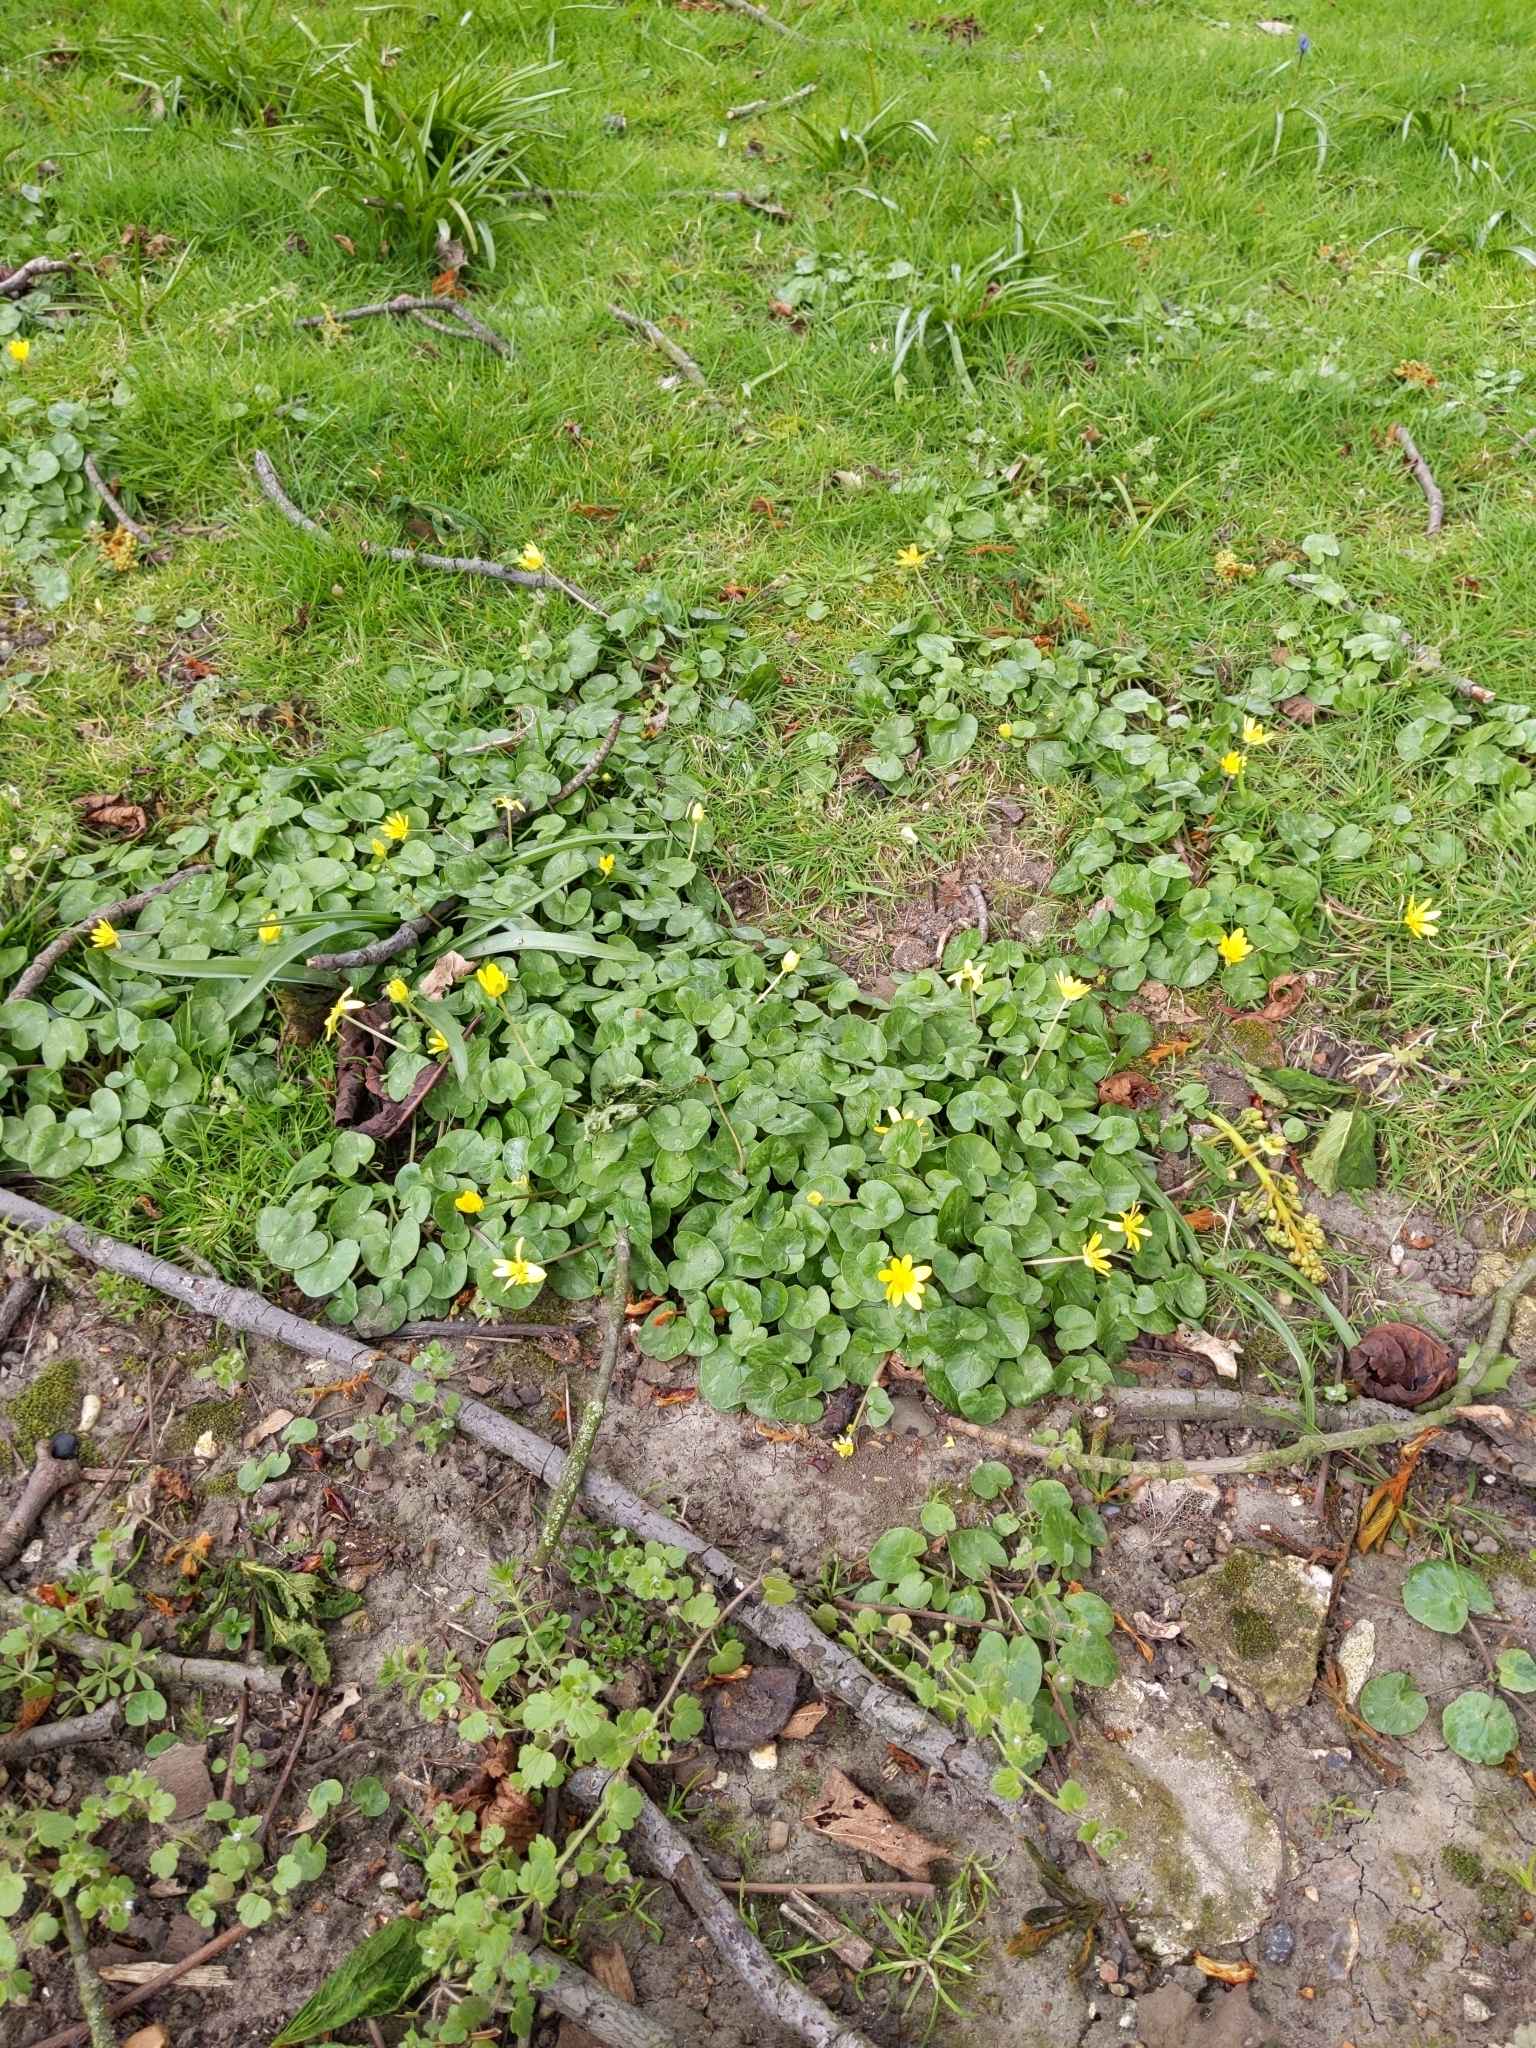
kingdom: Plantae
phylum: Tracheophyta
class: Magnoliopsida
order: Ranunculales
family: Ranunculaceae
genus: Ficaria
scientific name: Ficaria verna
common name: Lesser celandine
